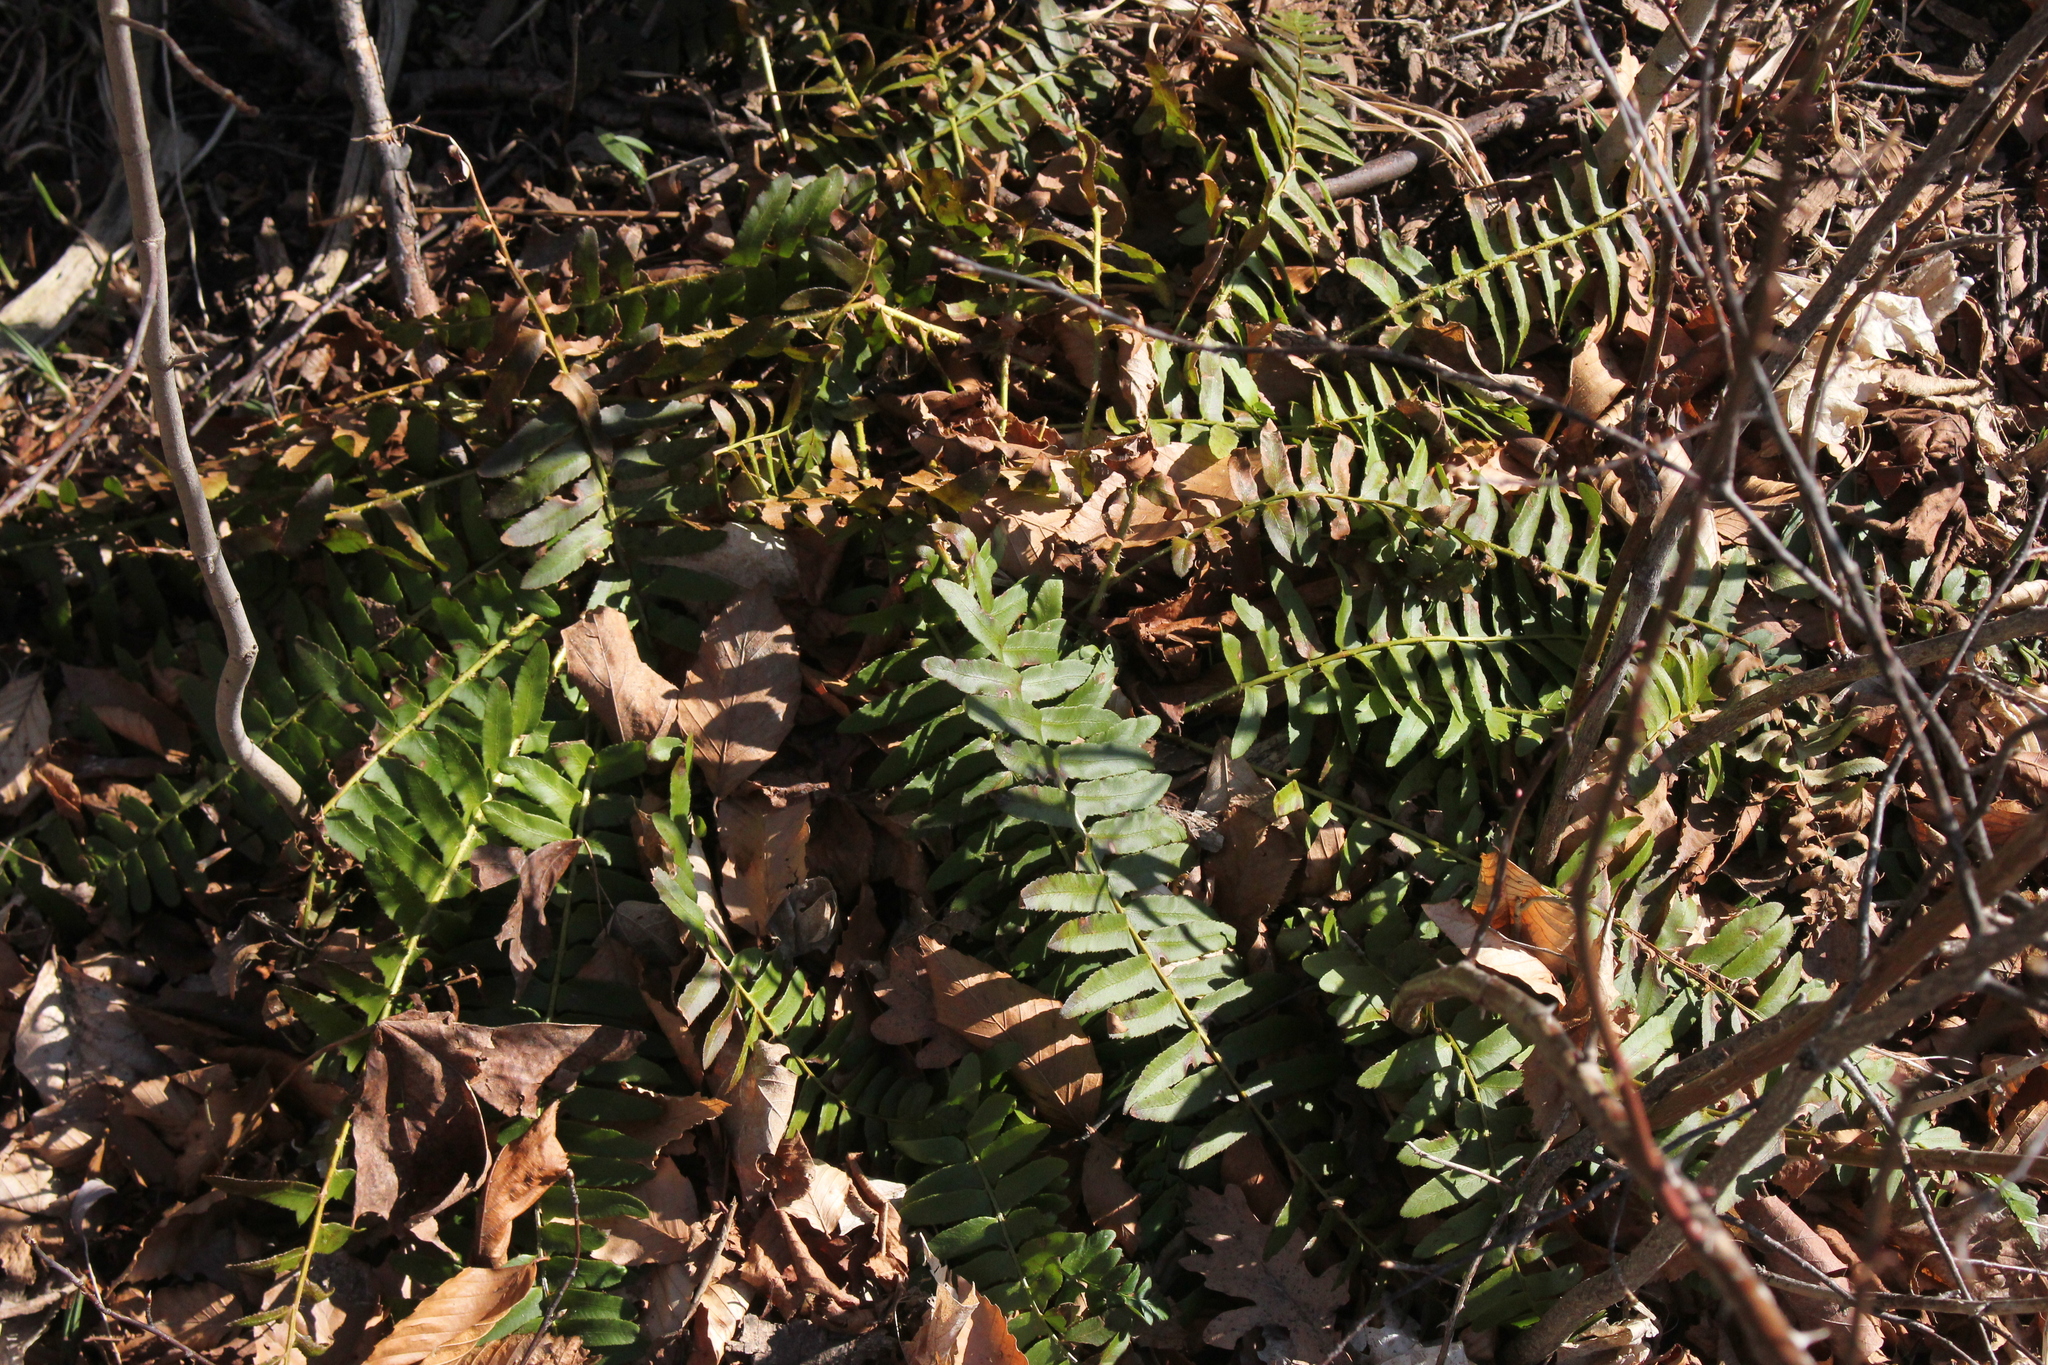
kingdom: Plantae
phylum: Tracheophyta
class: Polypodiopsida
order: Polypodiales
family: Dryopteridaceae
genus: Polystichum
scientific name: Polystichum acrostichoides
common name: Christmas fern
